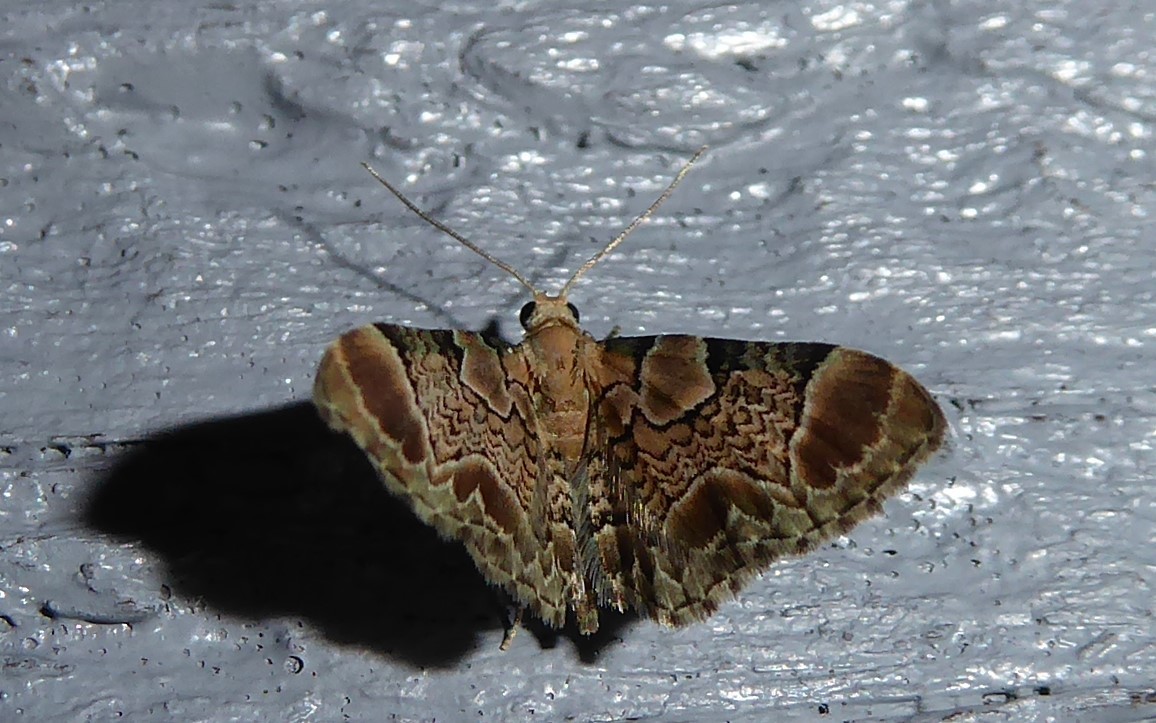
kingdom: Animalia
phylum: Arthropoda
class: Insecta
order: Lepidoptera
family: Geometridae
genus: Chloroclystis
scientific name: Chloroclystis
